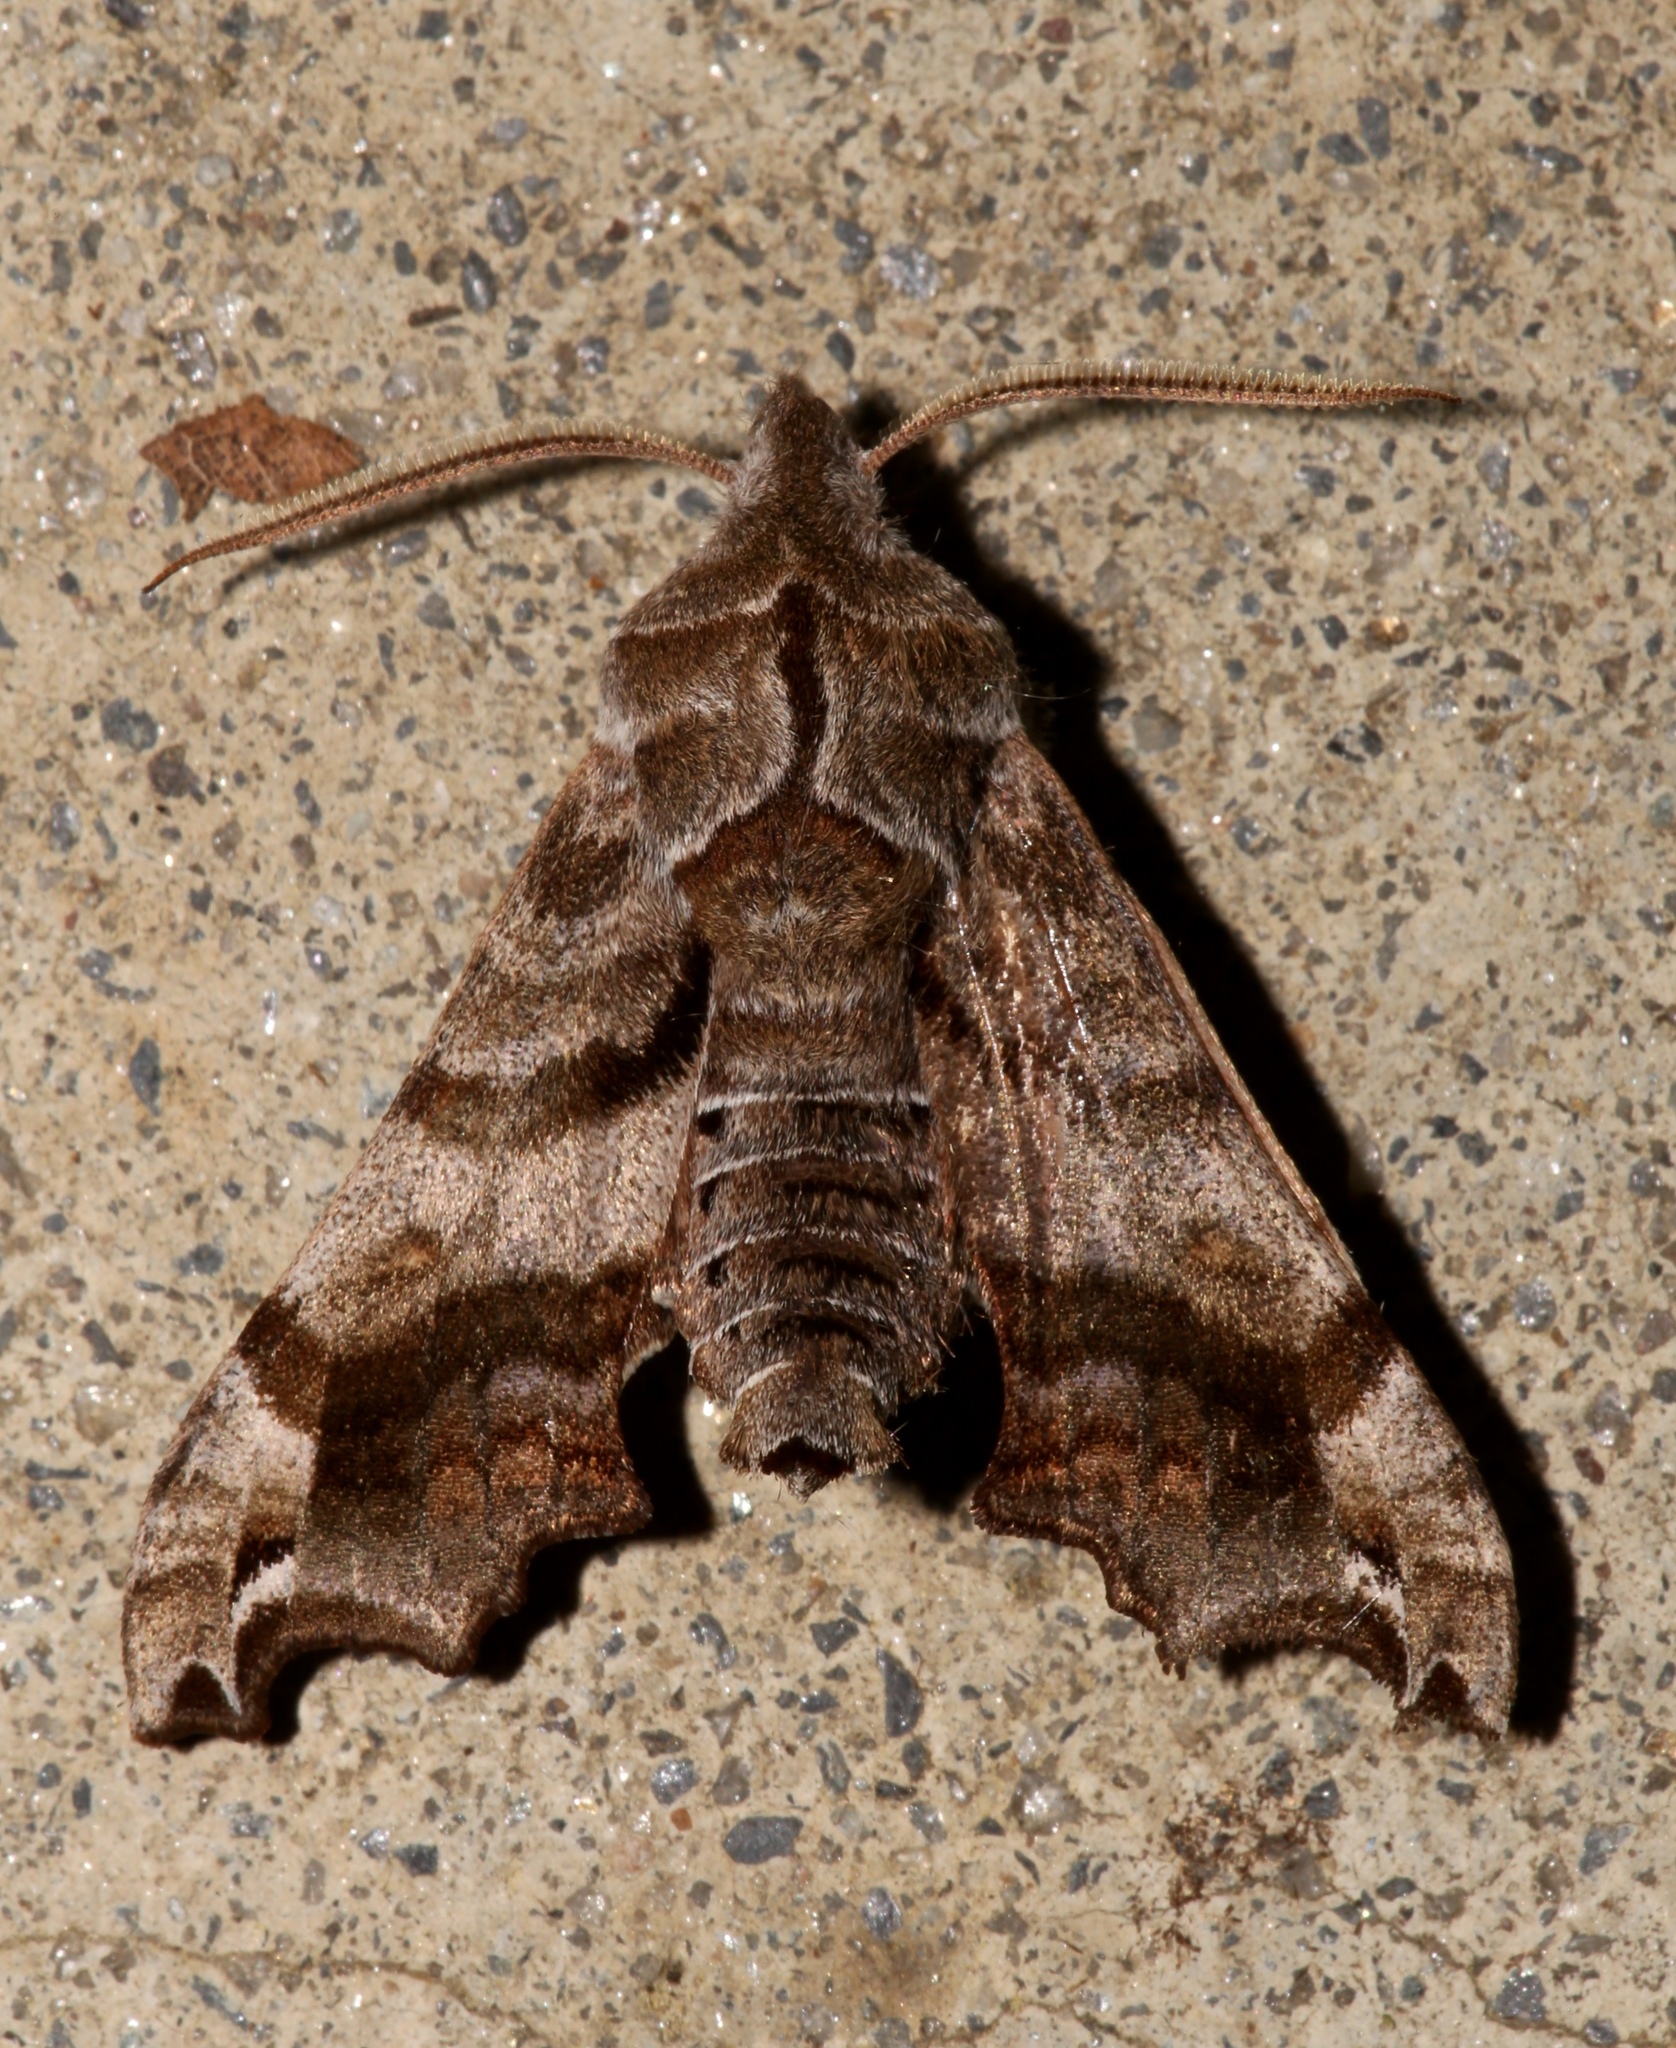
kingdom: Animalia
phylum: Arthropoda
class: Insecta
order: Lepidoptera
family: Sphingidae
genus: Deidamia
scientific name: Deidamia inscriptum
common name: Lettered sphinx
